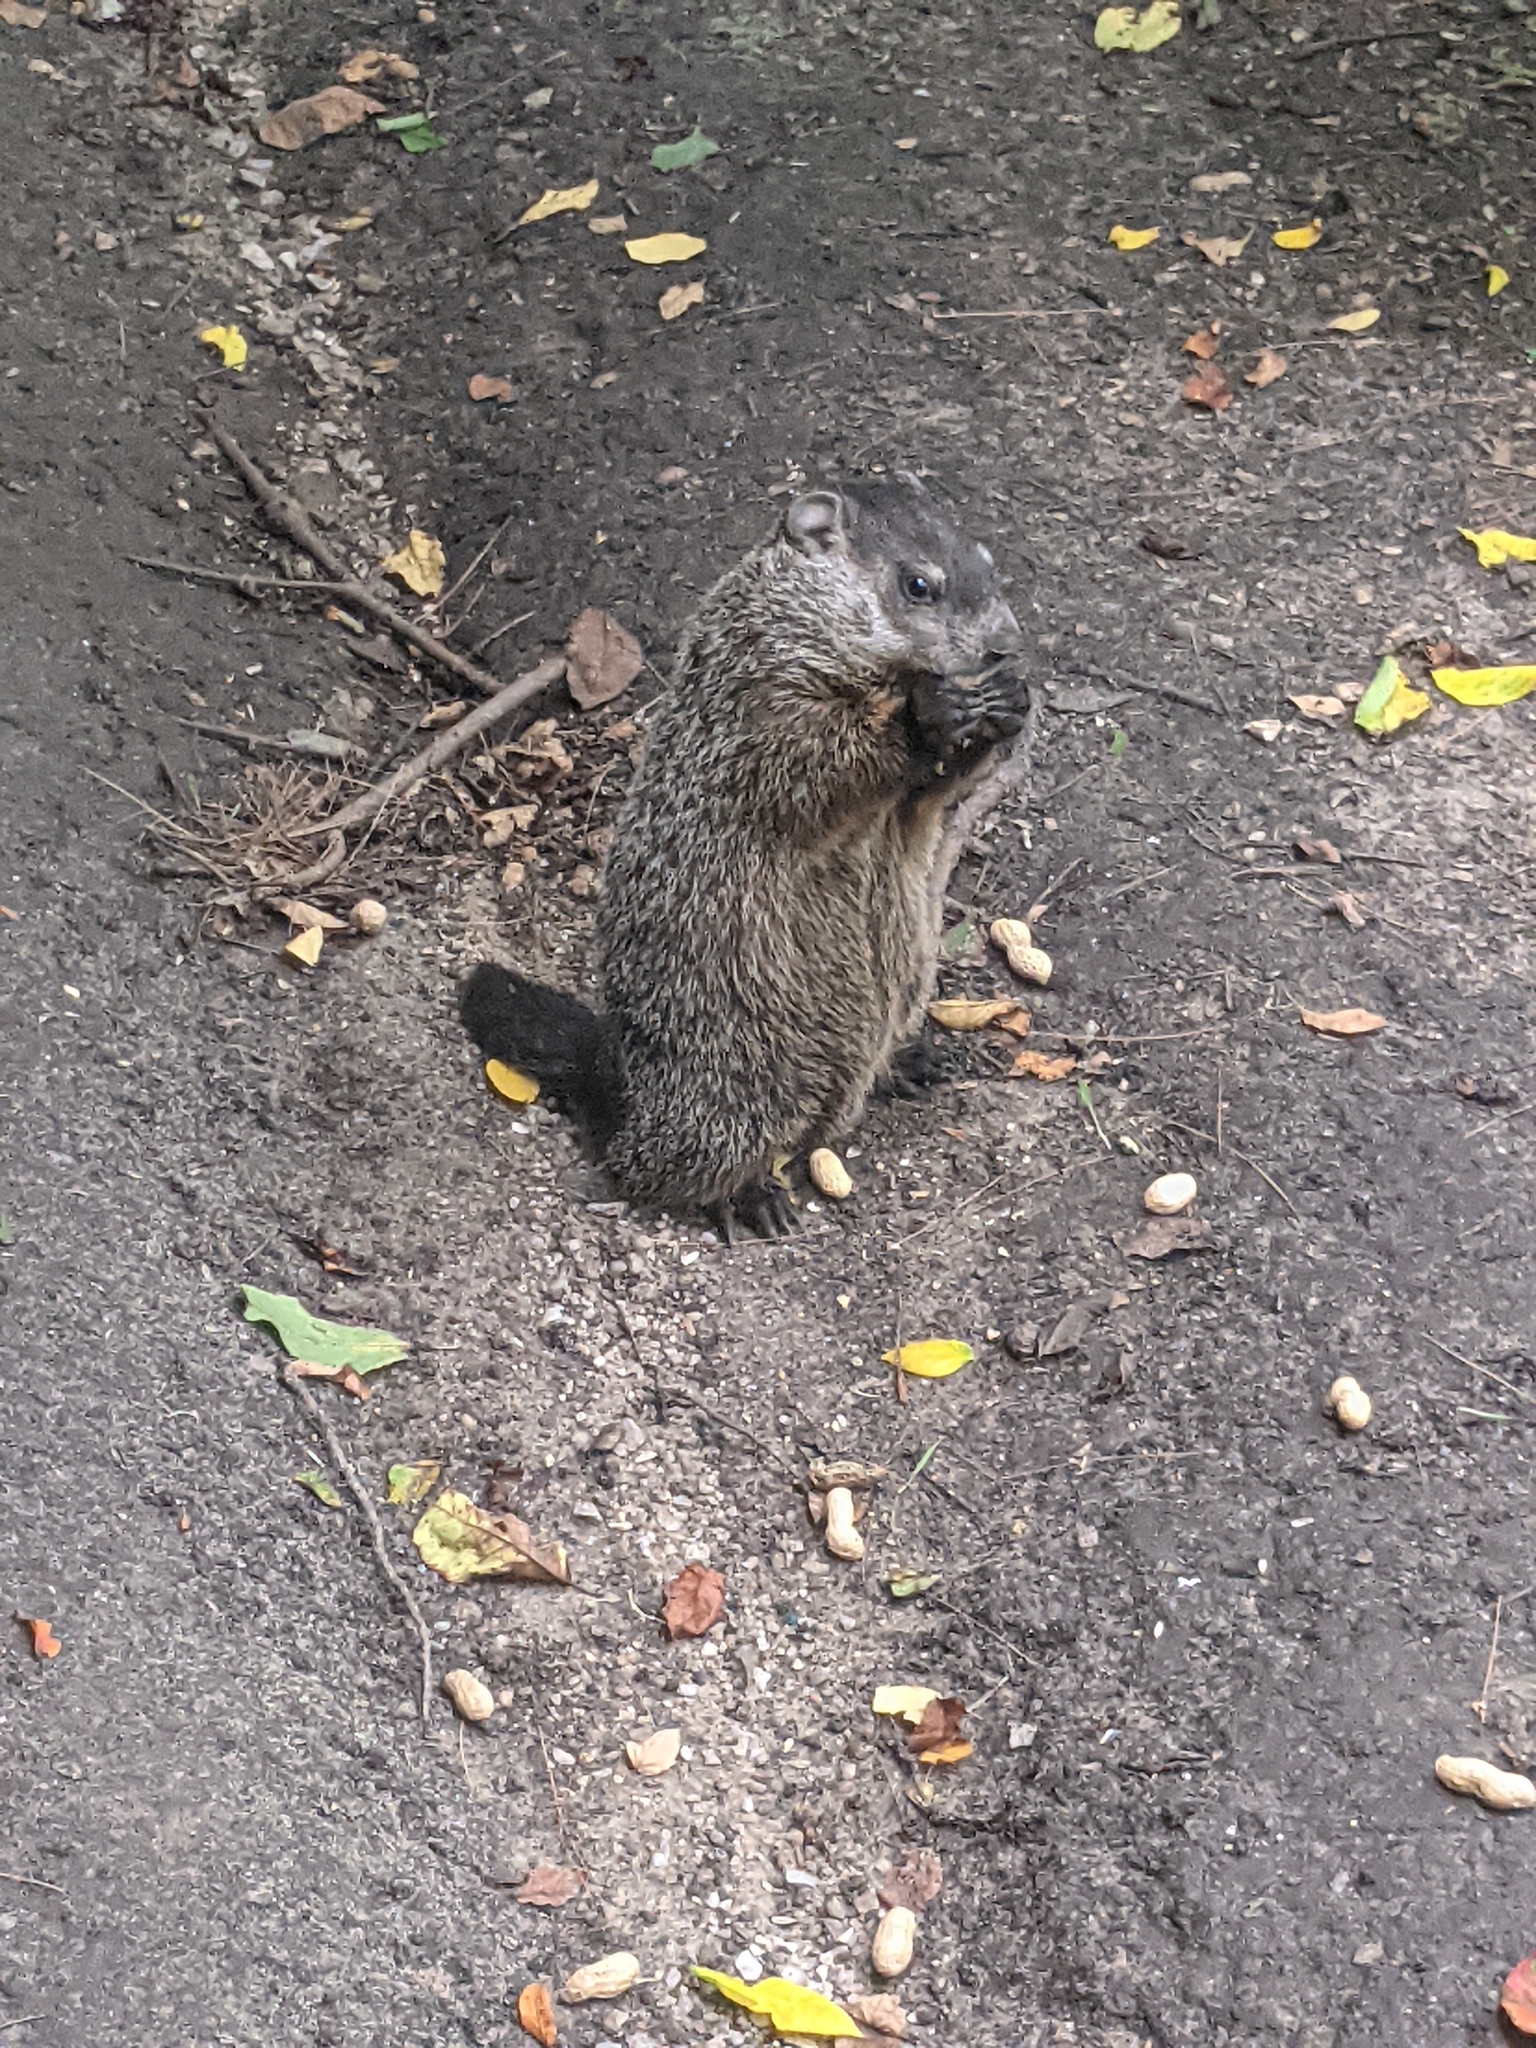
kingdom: Animalia
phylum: Chordata
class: Mammalia
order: Rodentia
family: Sciuridae
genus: Marmota
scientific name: Marmota monax
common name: Groundhog
